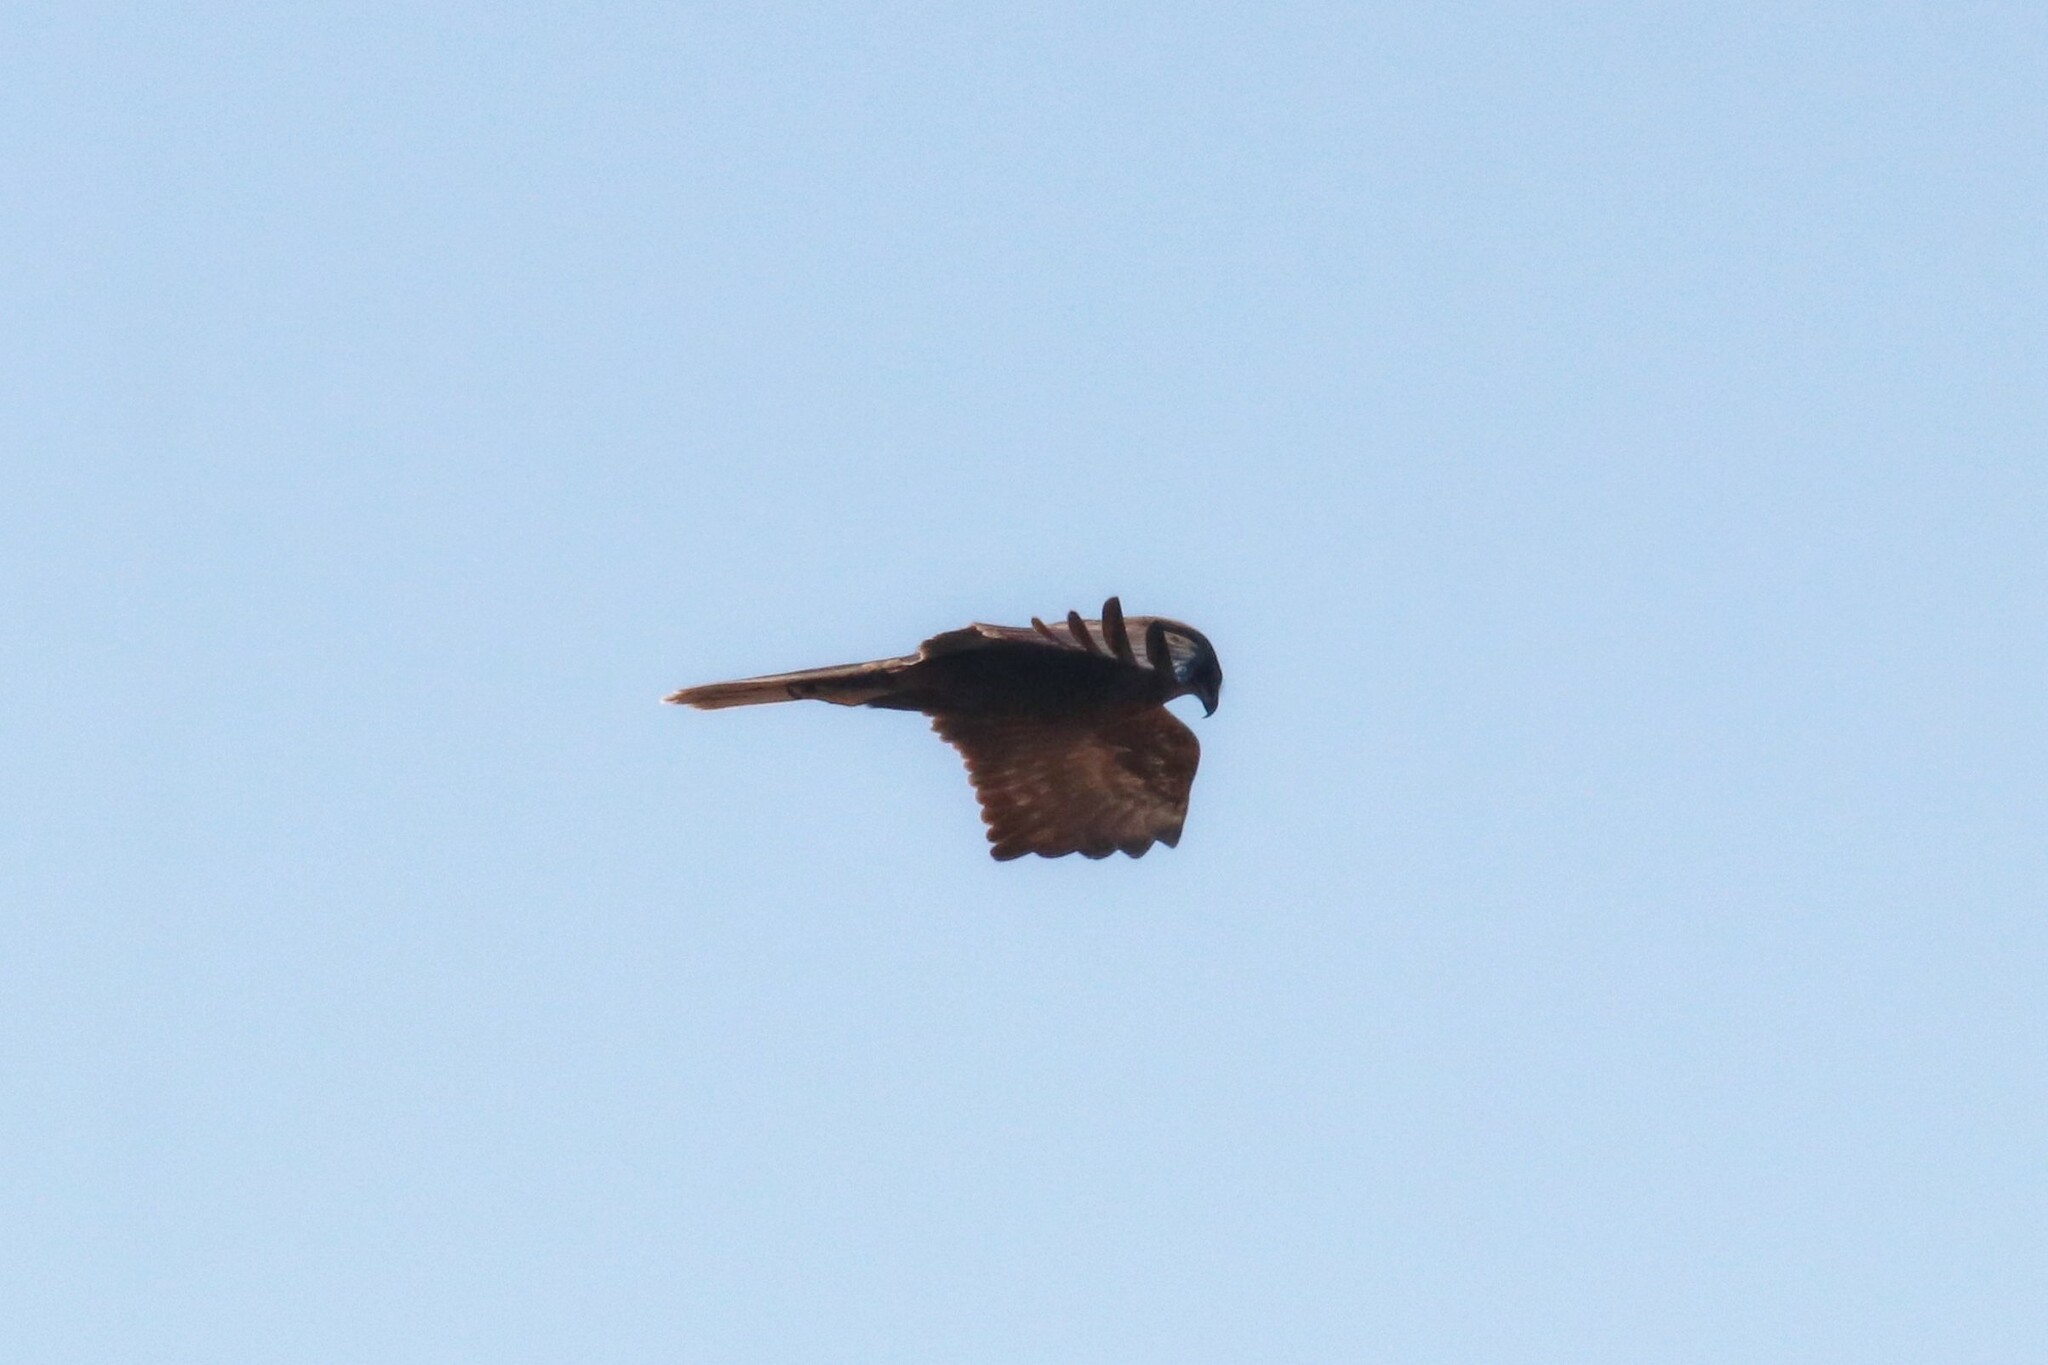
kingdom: Animalia
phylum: Chordata
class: Aves
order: Accipitriformes
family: Accipitridae
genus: Circus
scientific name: Circus aeruginosus
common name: Western marsh harrier
